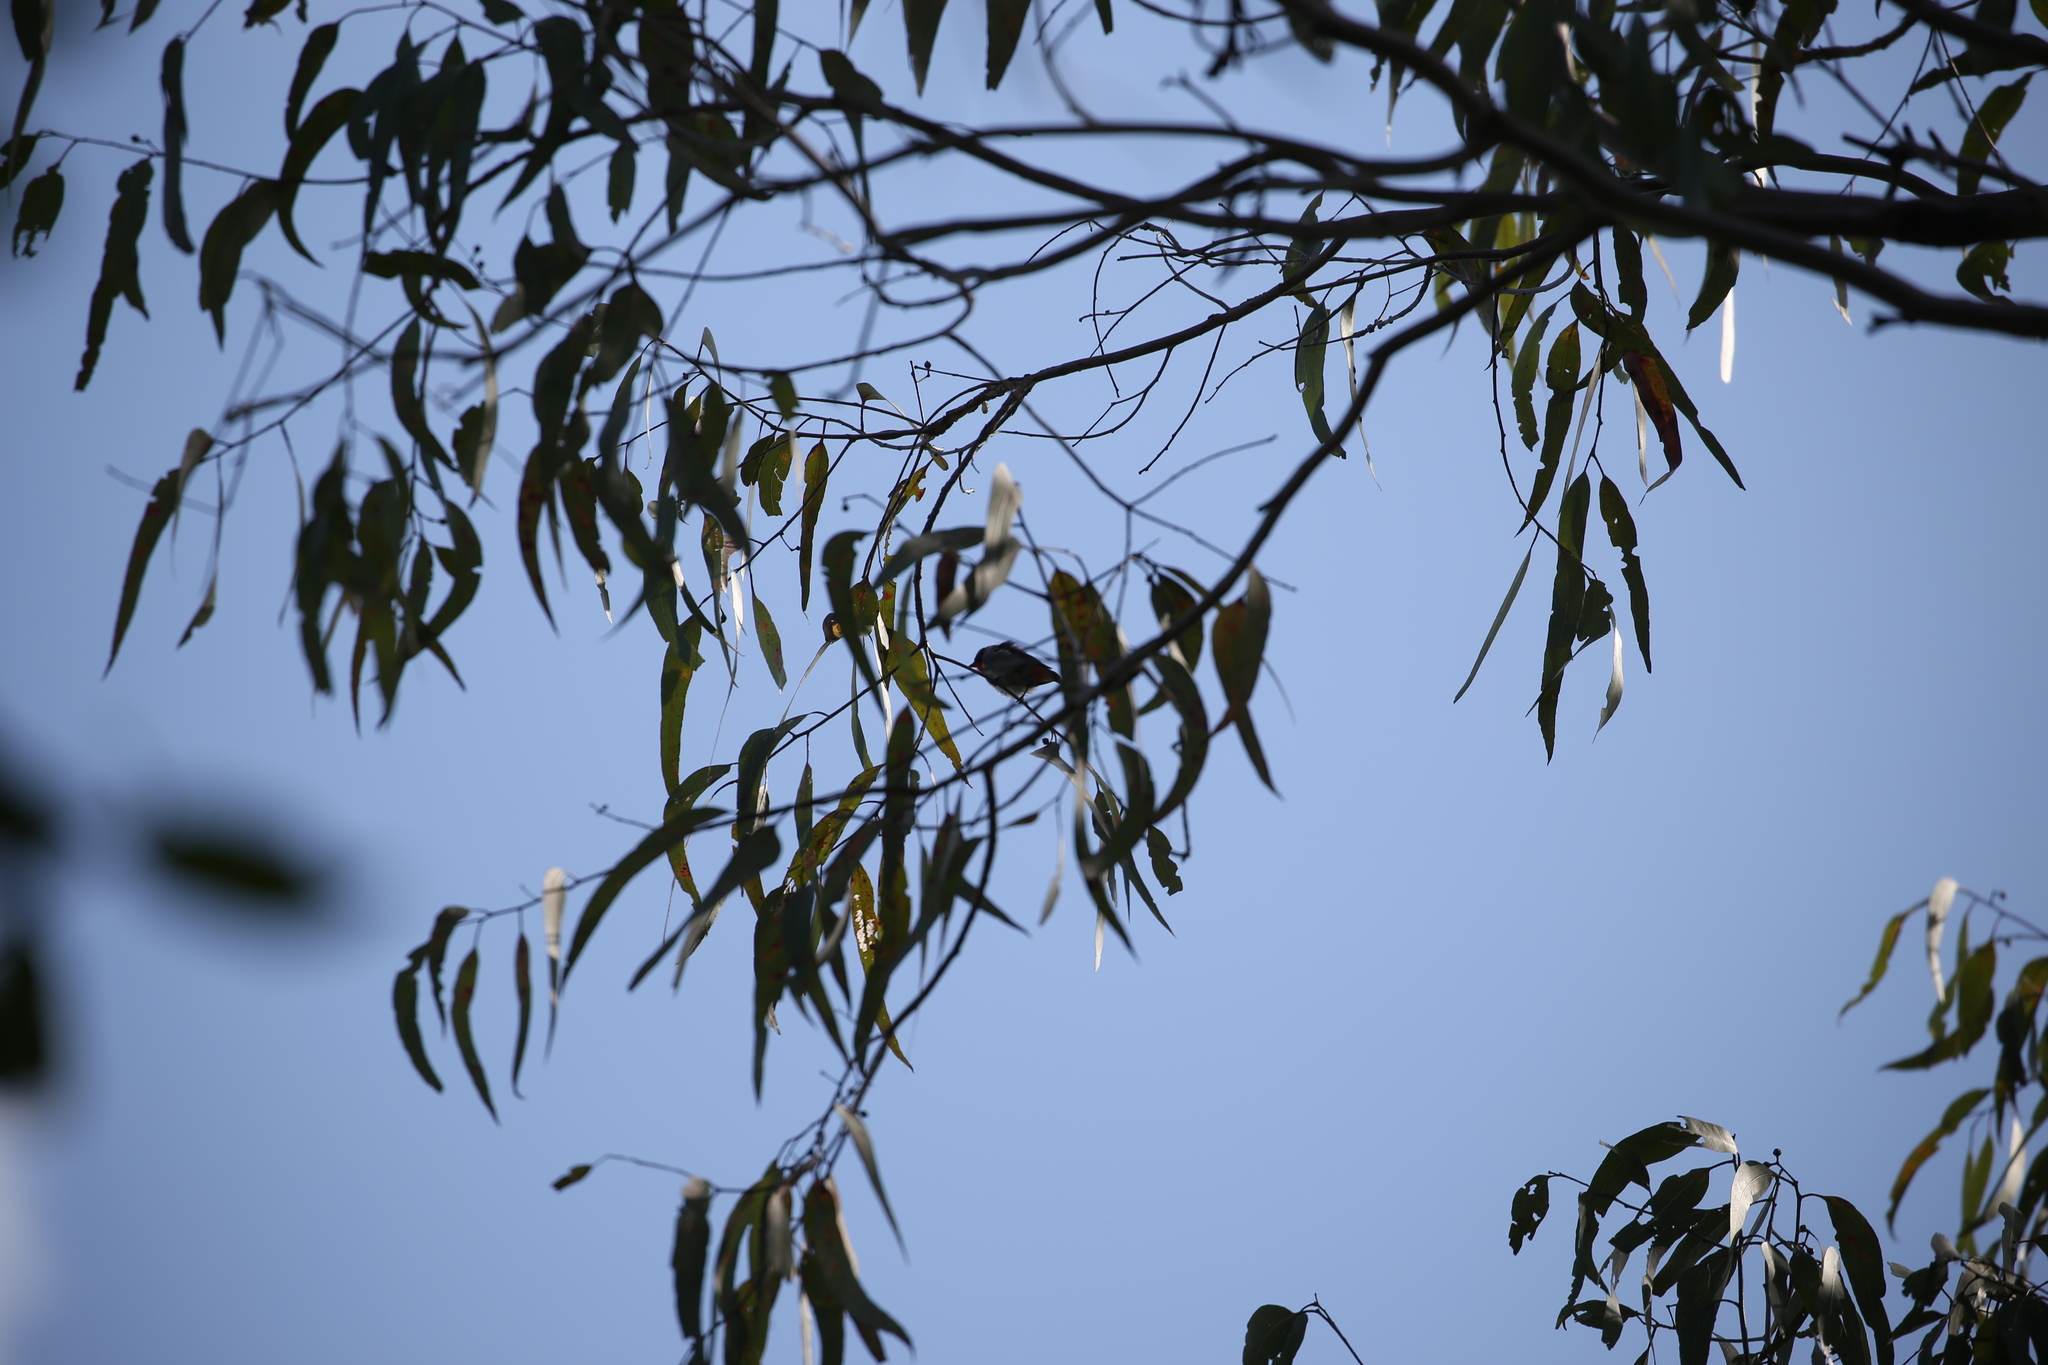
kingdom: Animalia
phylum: Chordata
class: Aves
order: Passeriformes
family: Dicaeidae
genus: Dicaeum
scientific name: Dicaeum hirundinaceum
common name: Mistletoebird
